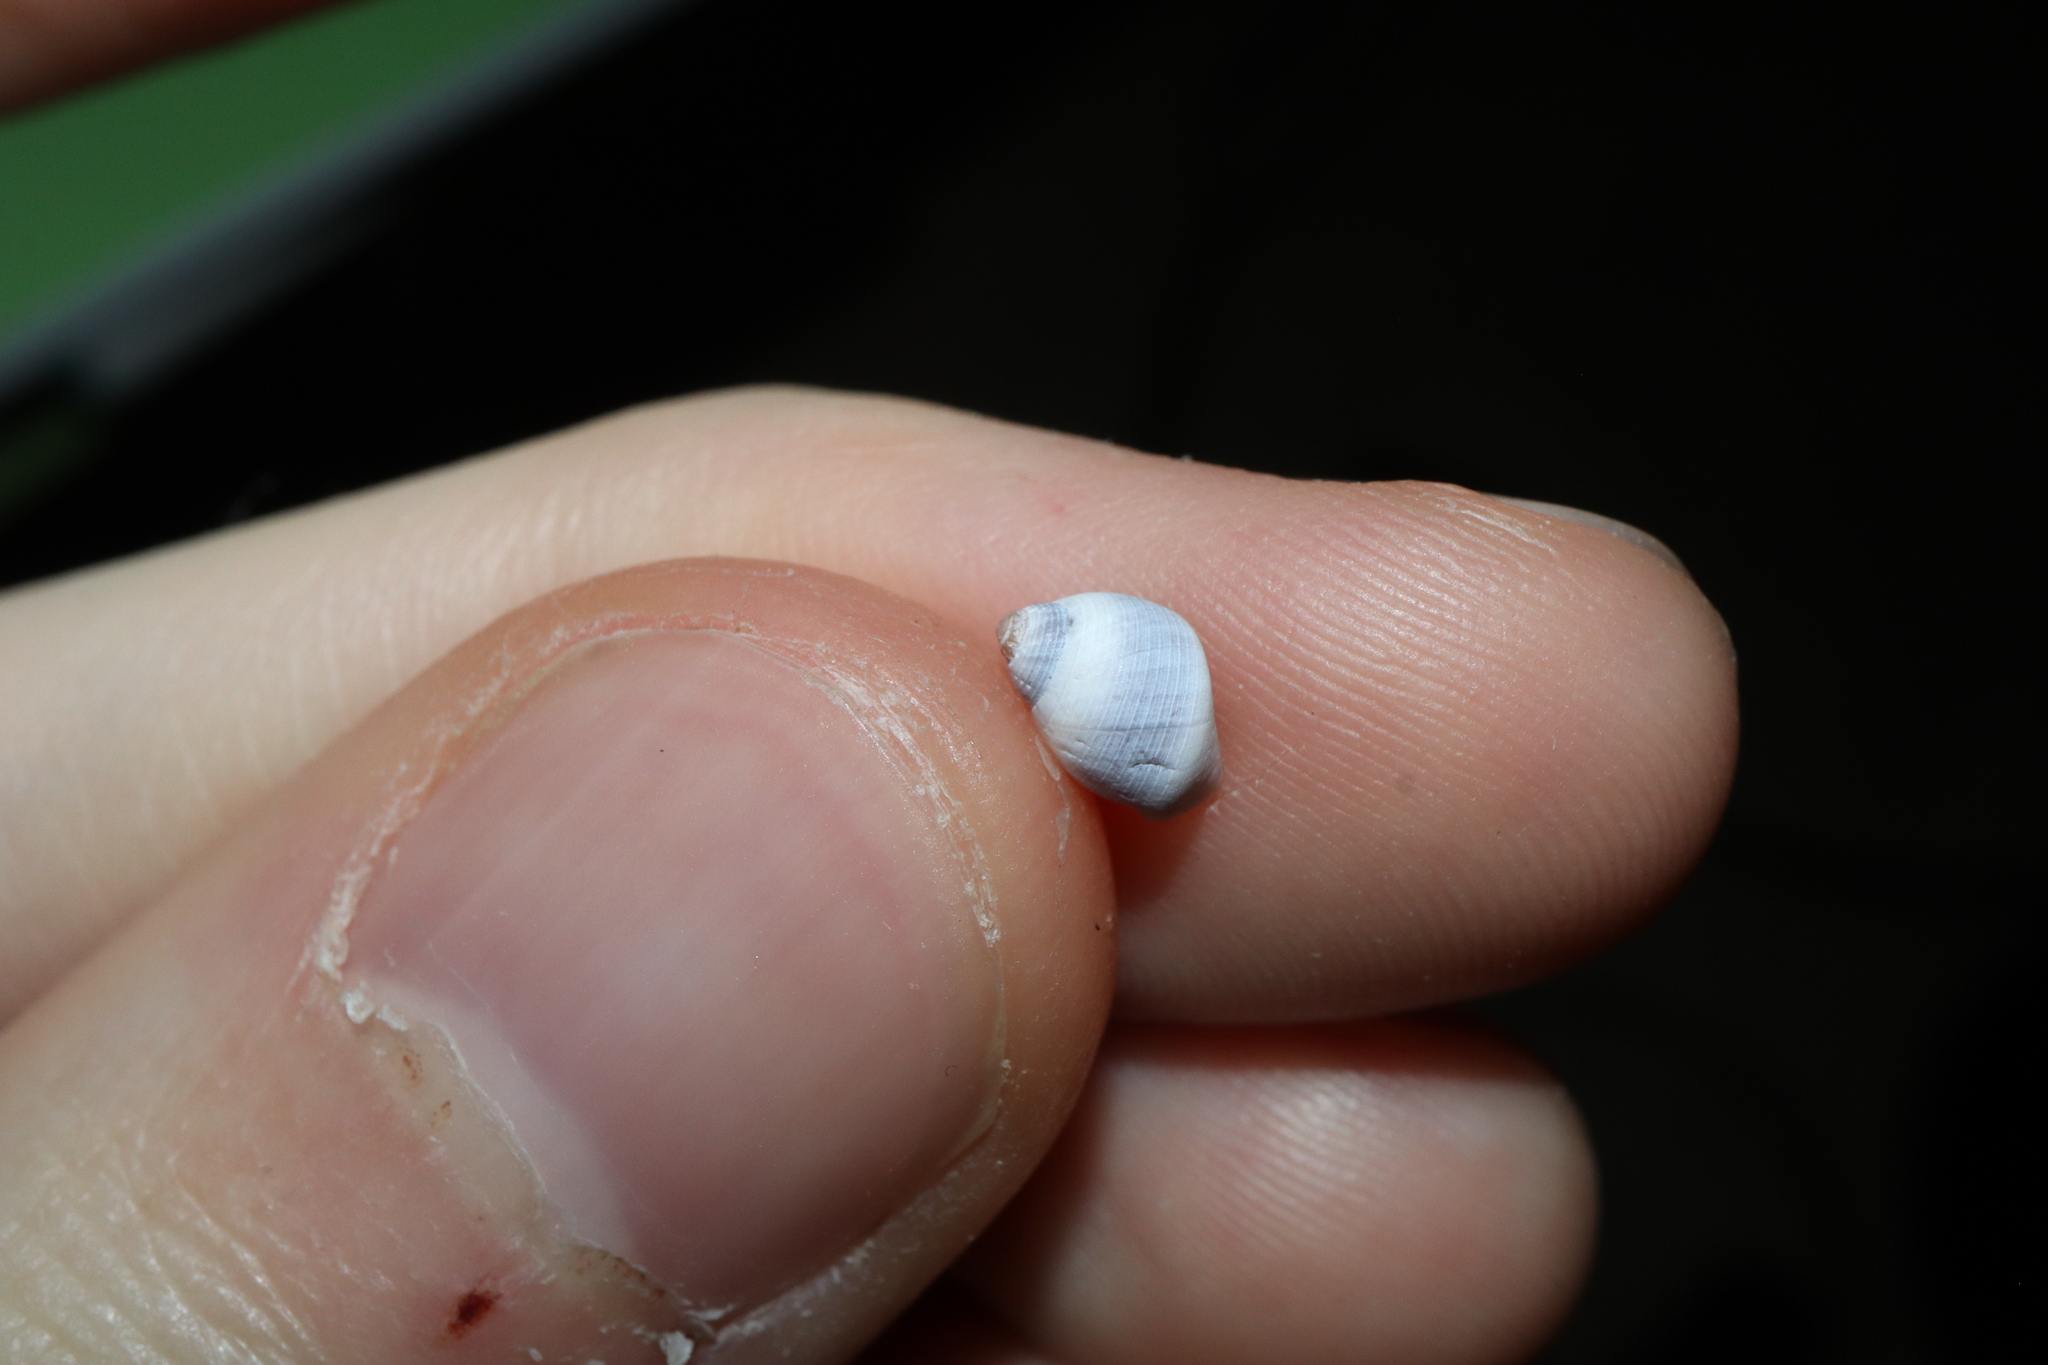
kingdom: Animalia
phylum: Mollusca
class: Gastropoda
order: Littorinimorpha
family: Littorinidae
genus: Austrolittorina
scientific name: Austrolittorina unifasciata
